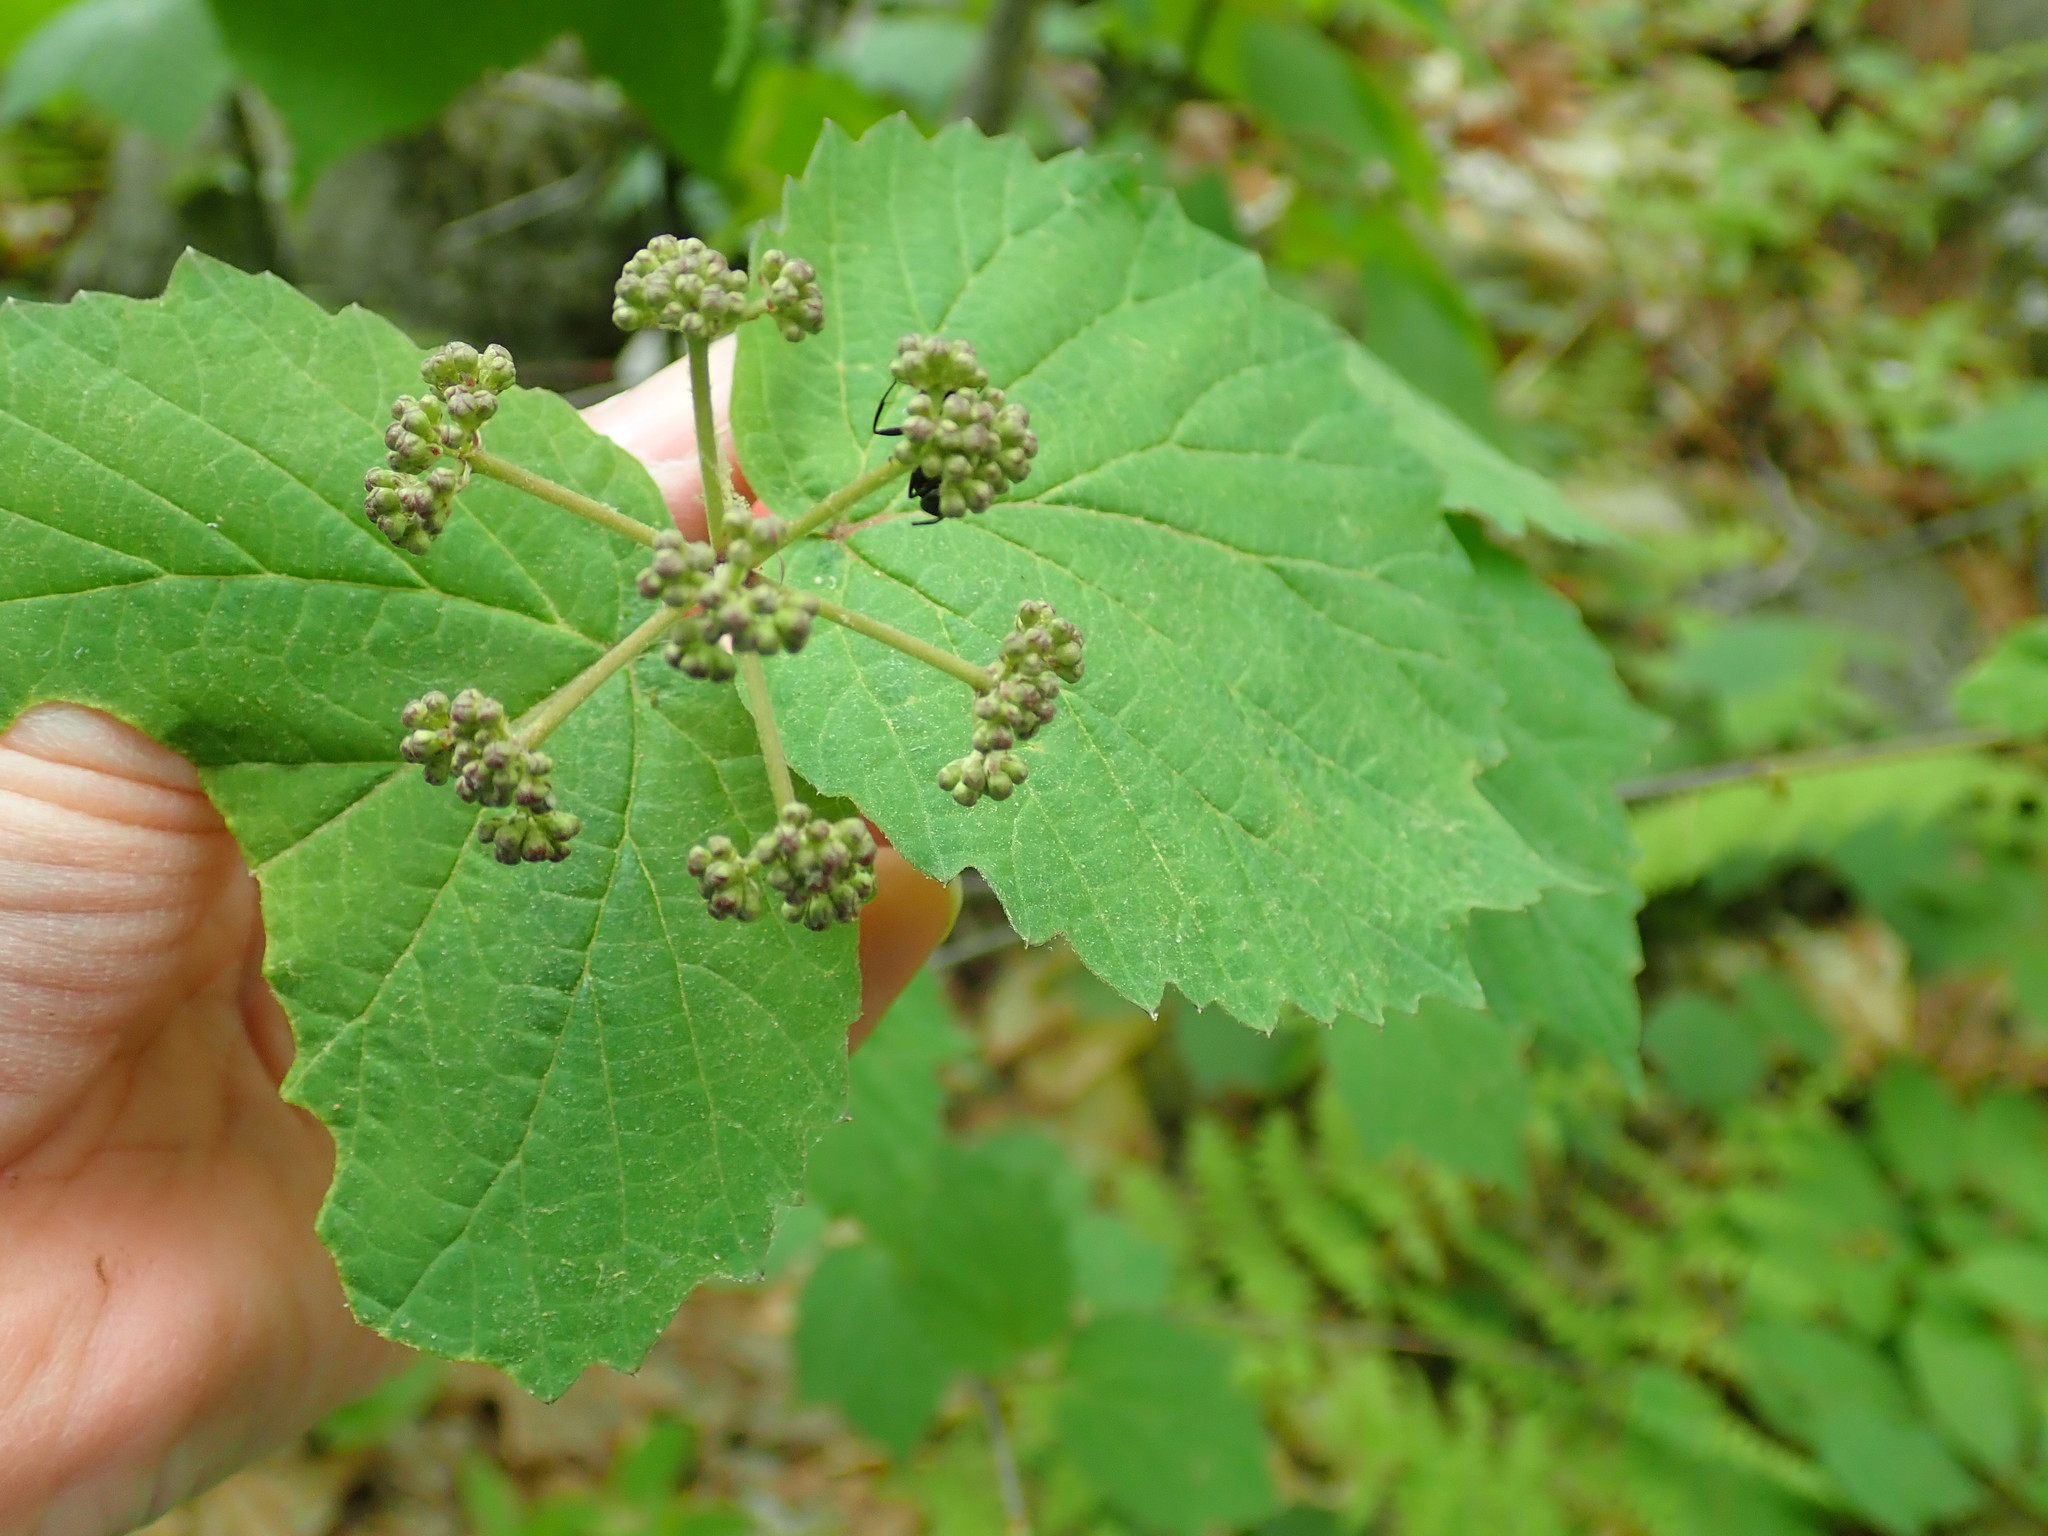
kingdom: Plantae
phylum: Tracheophyta
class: Magnoliopsida
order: Dipsacales
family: Viburnaceae
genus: Viburnum
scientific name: Viburnum acerifolium
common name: Dockmackie
